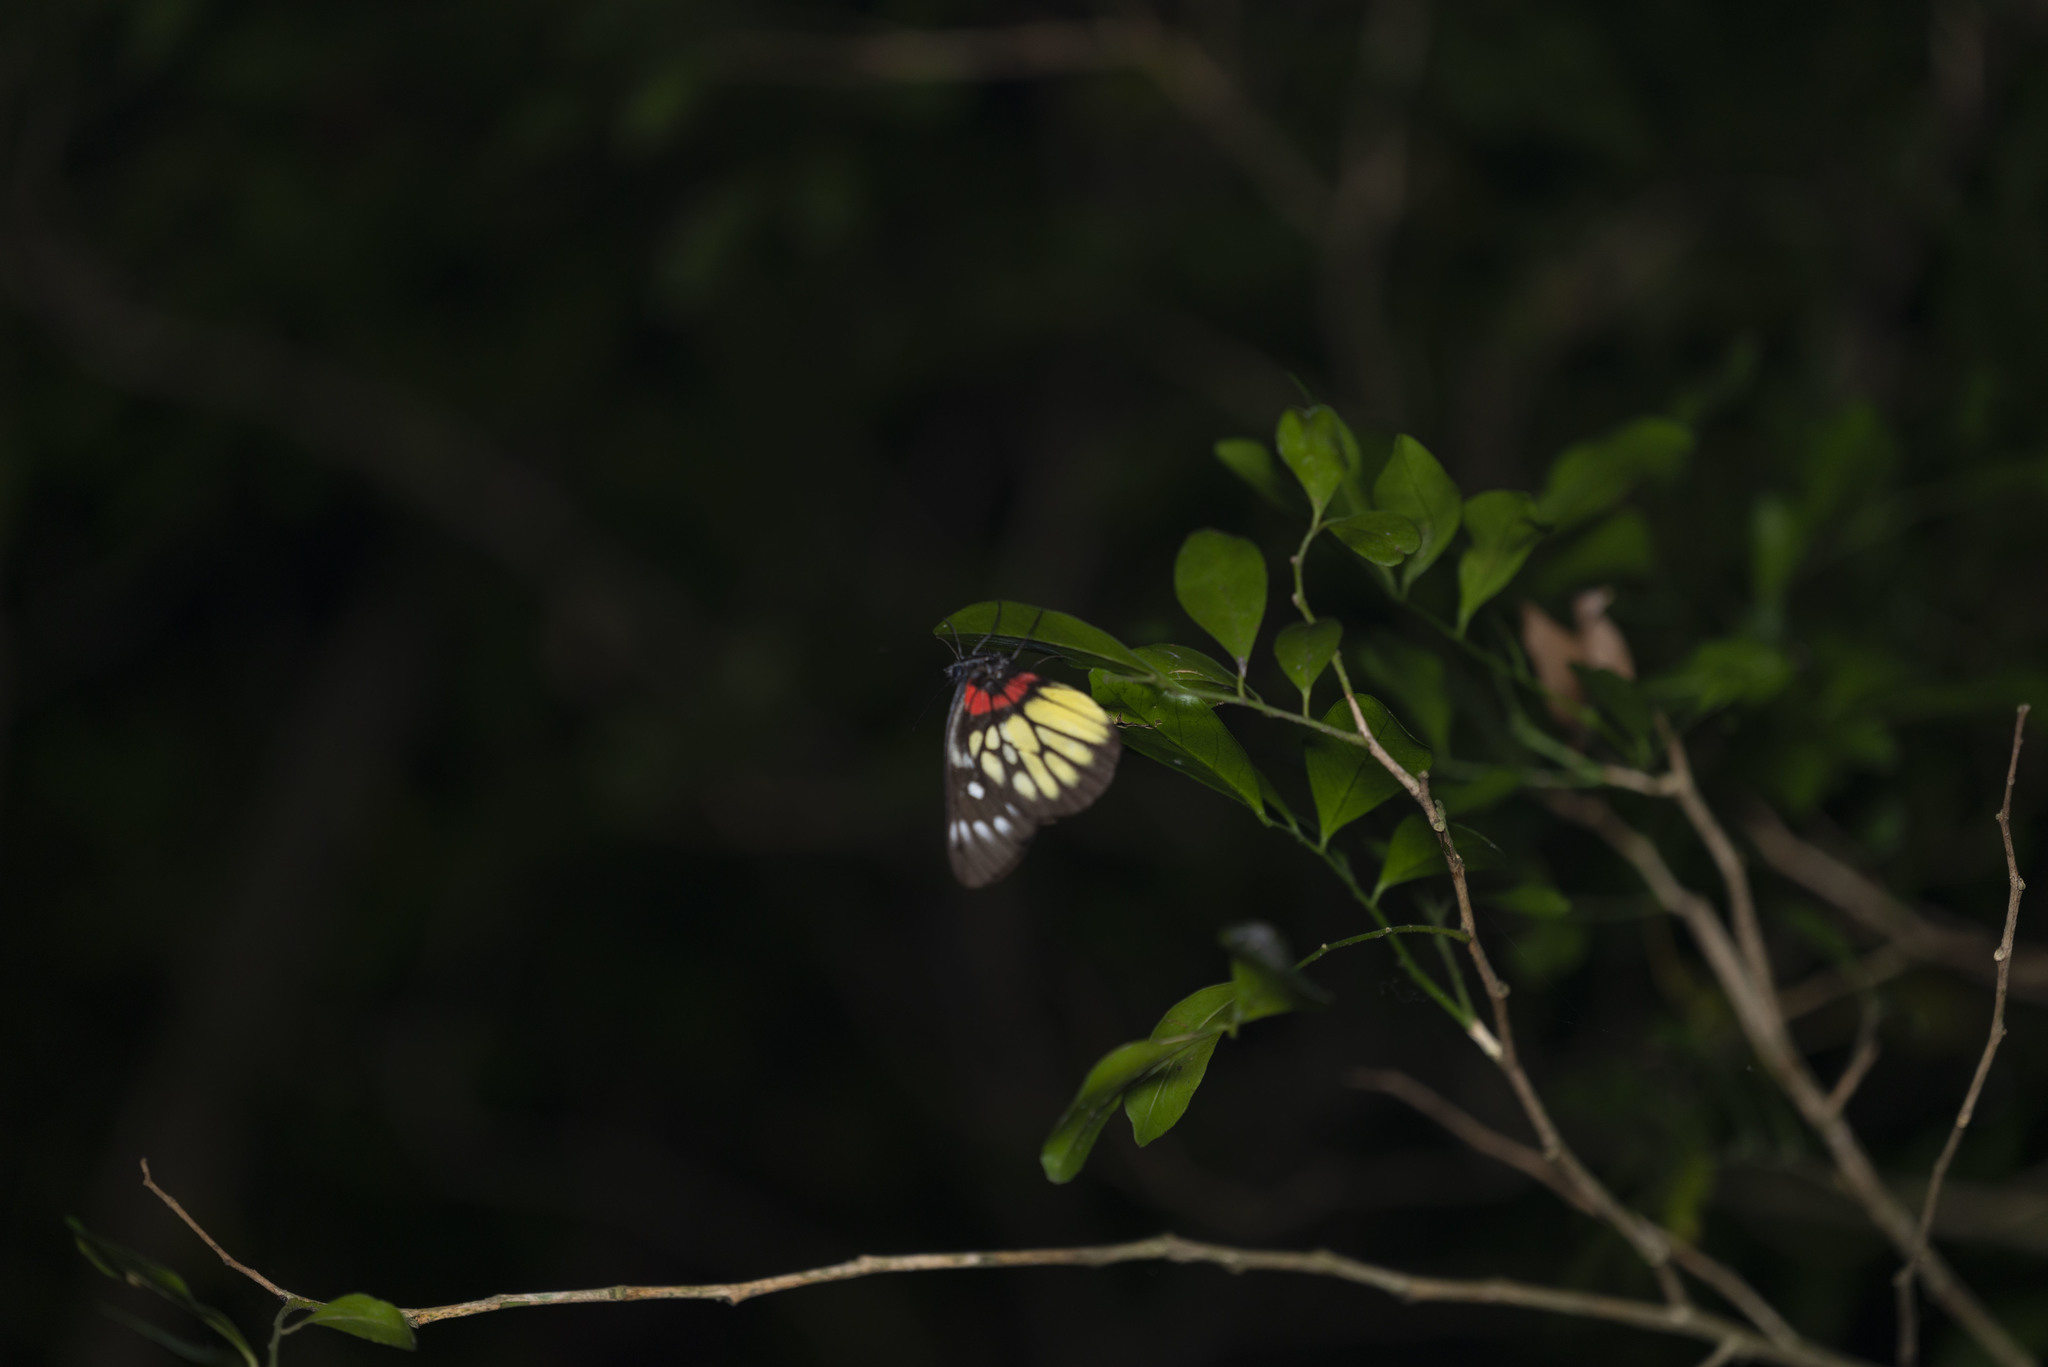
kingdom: Animalia
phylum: Arthropoda
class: Insecta
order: Lepidoptera
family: Pieridae
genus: Delias
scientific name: Delias pasithoe
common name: Red-base jezebel
